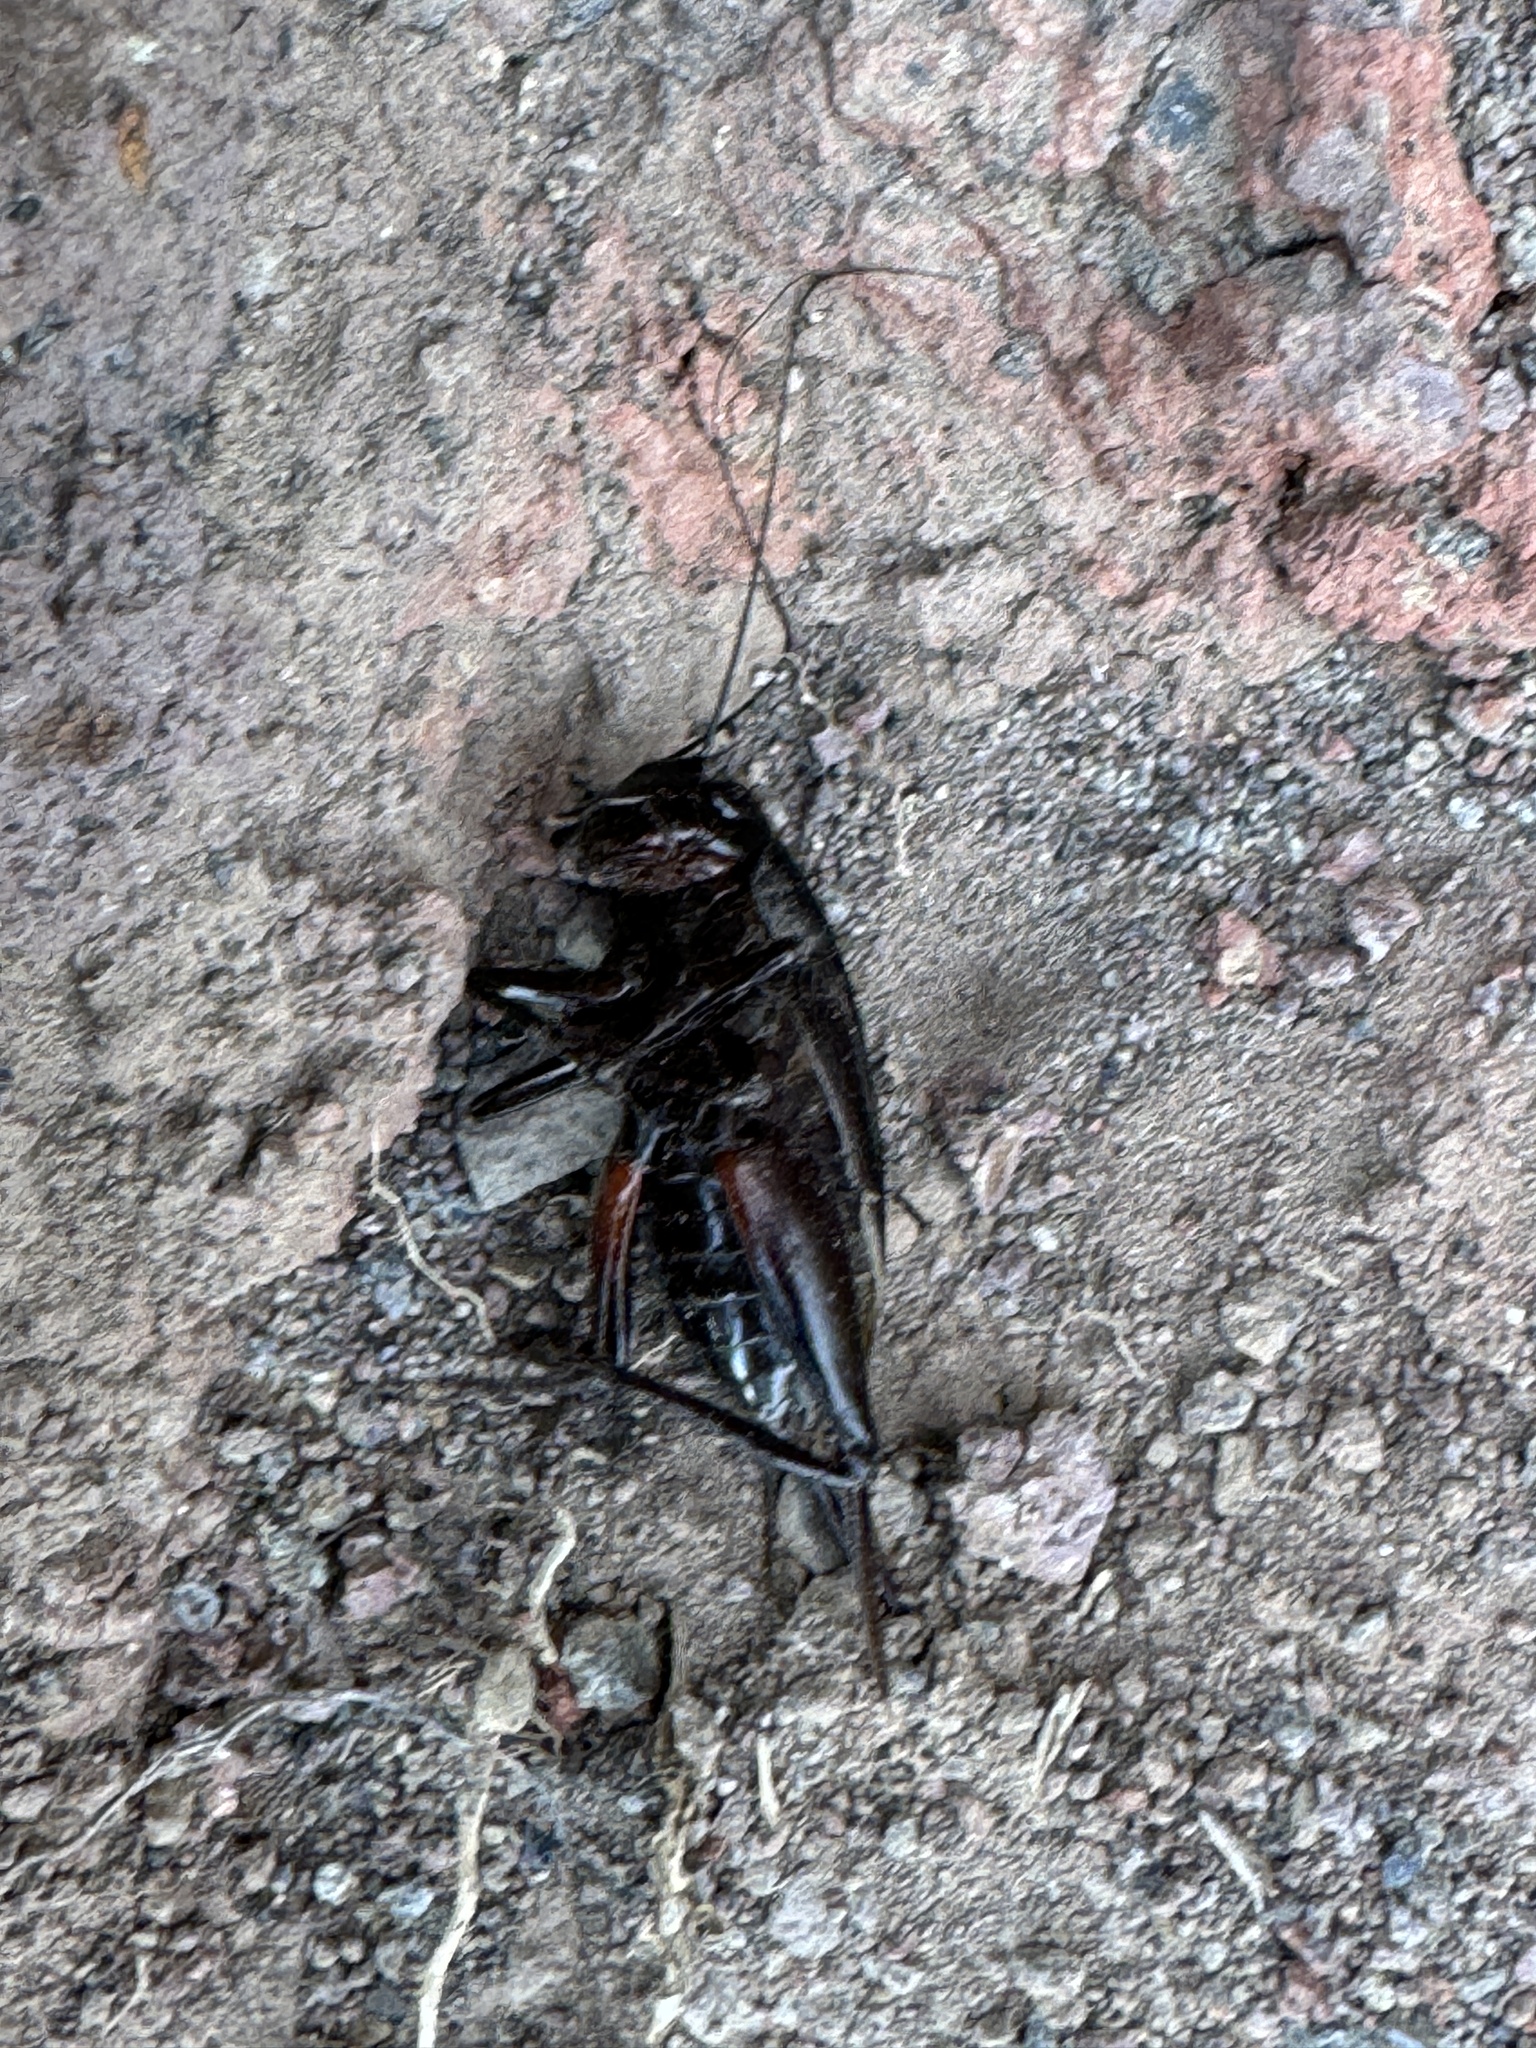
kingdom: Animalia
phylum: Arthropoda
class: Insecta
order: Orthoptera
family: Gryllidae
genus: Gryllus
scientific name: Gryllus bimaculatus
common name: Two-spotted cricket
